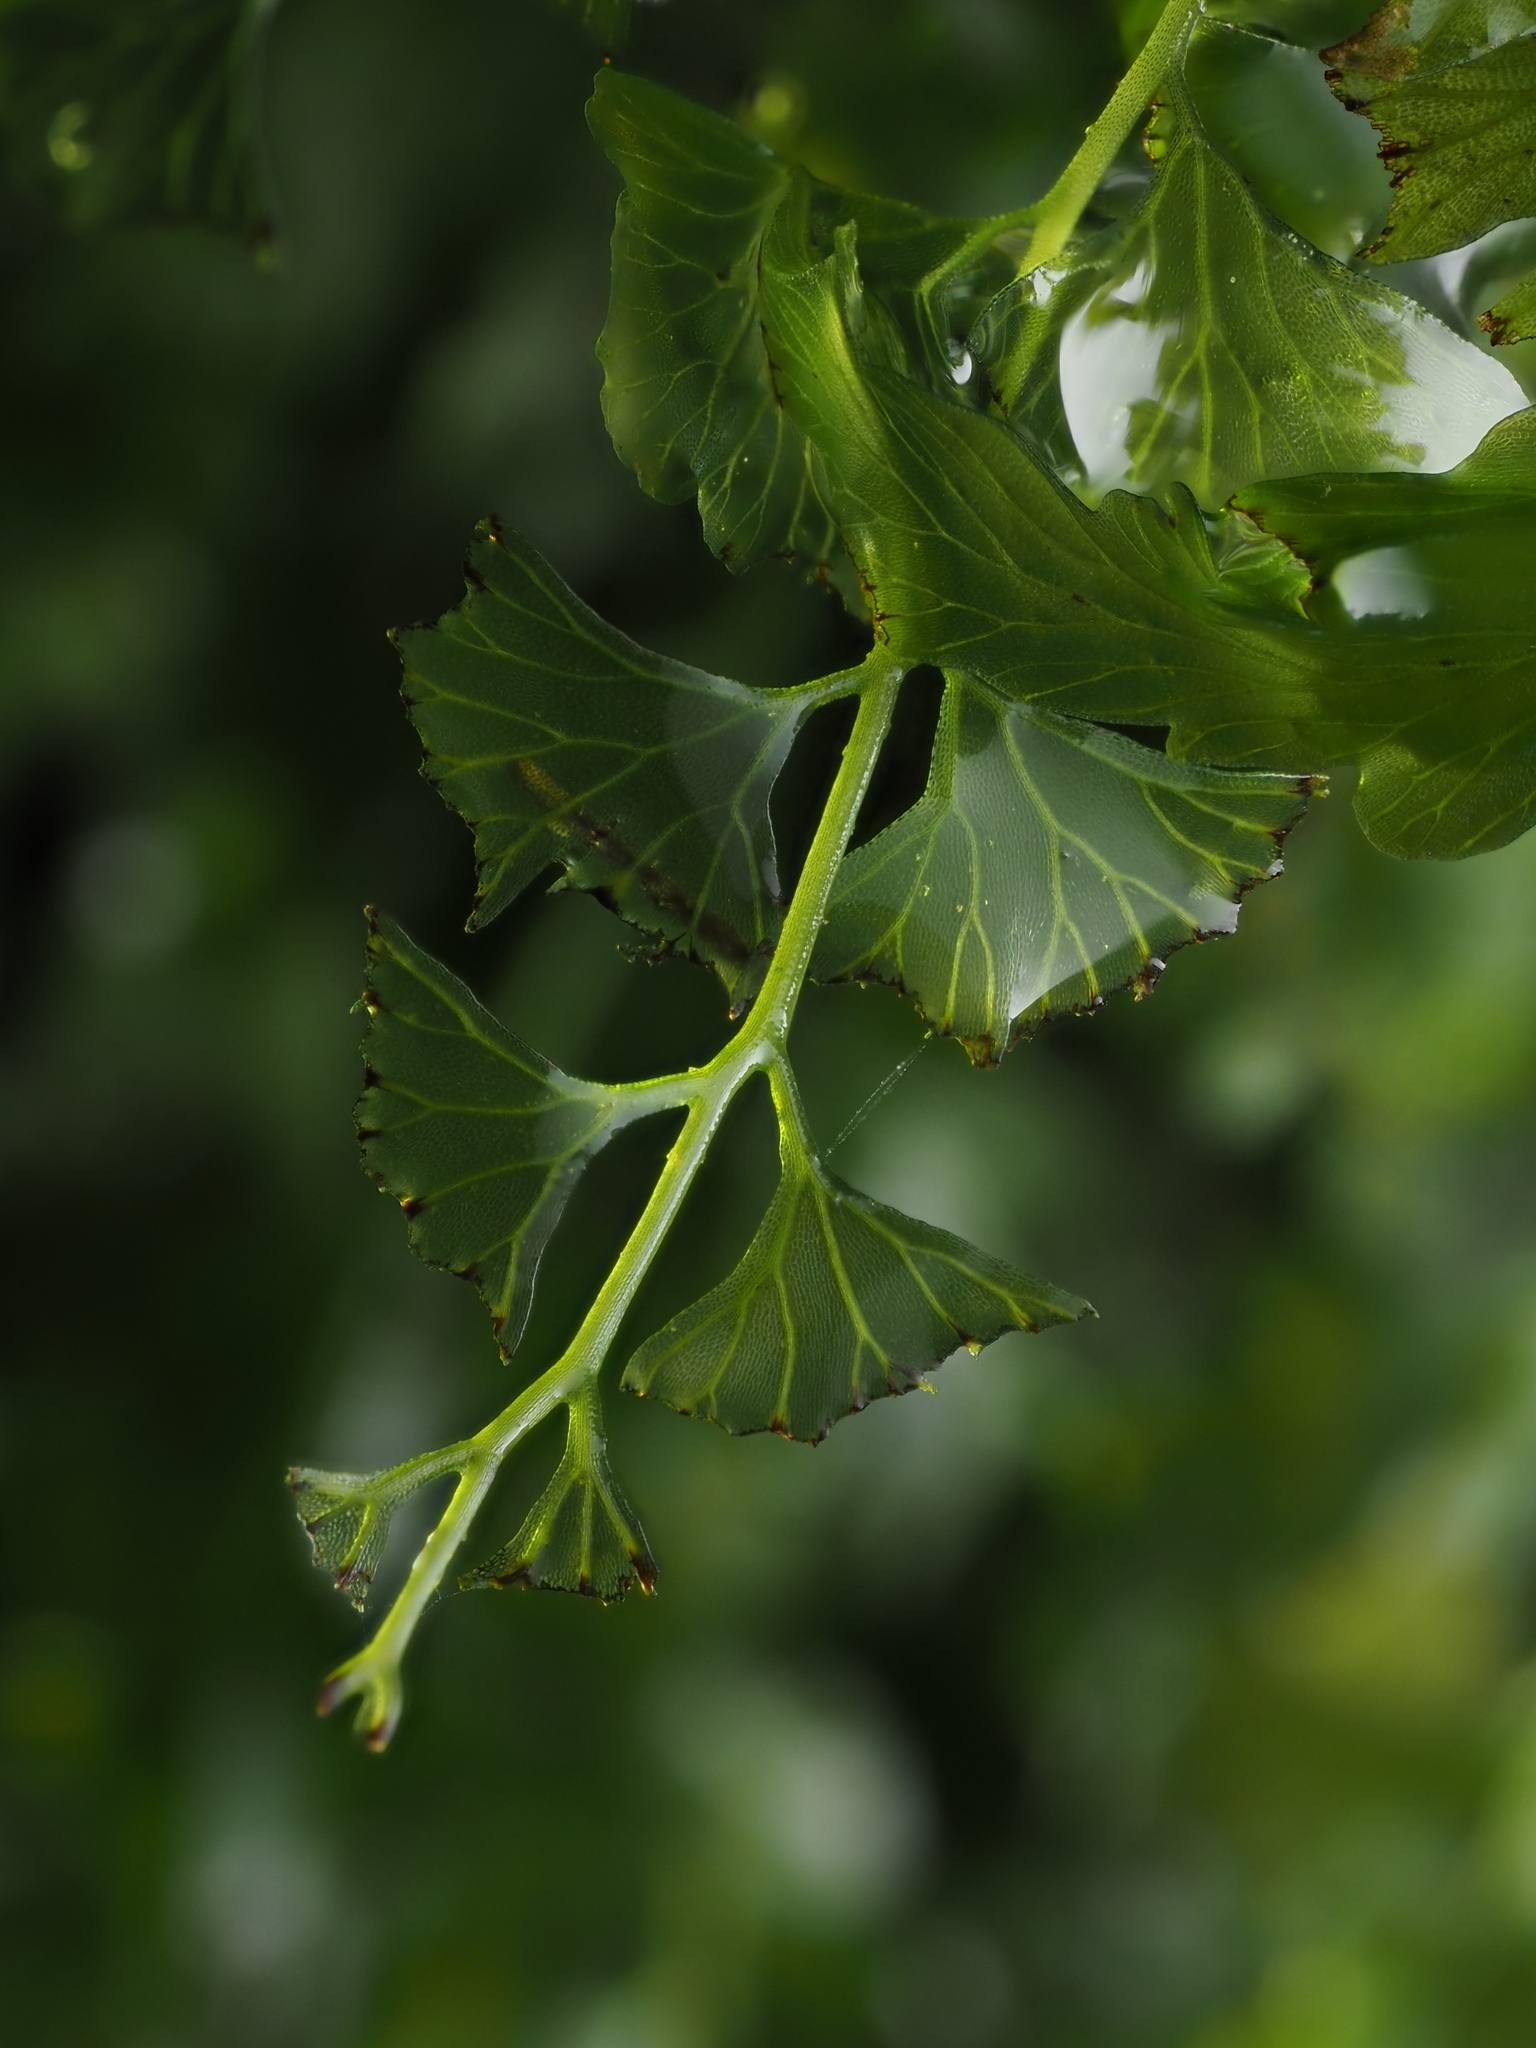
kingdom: Plantae
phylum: Tracheophyta
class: Polypodiopsida
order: Hymenophyllales
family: Hymenophyllaceae
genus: Polyphlebium
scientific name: Polyphlebium venosum
